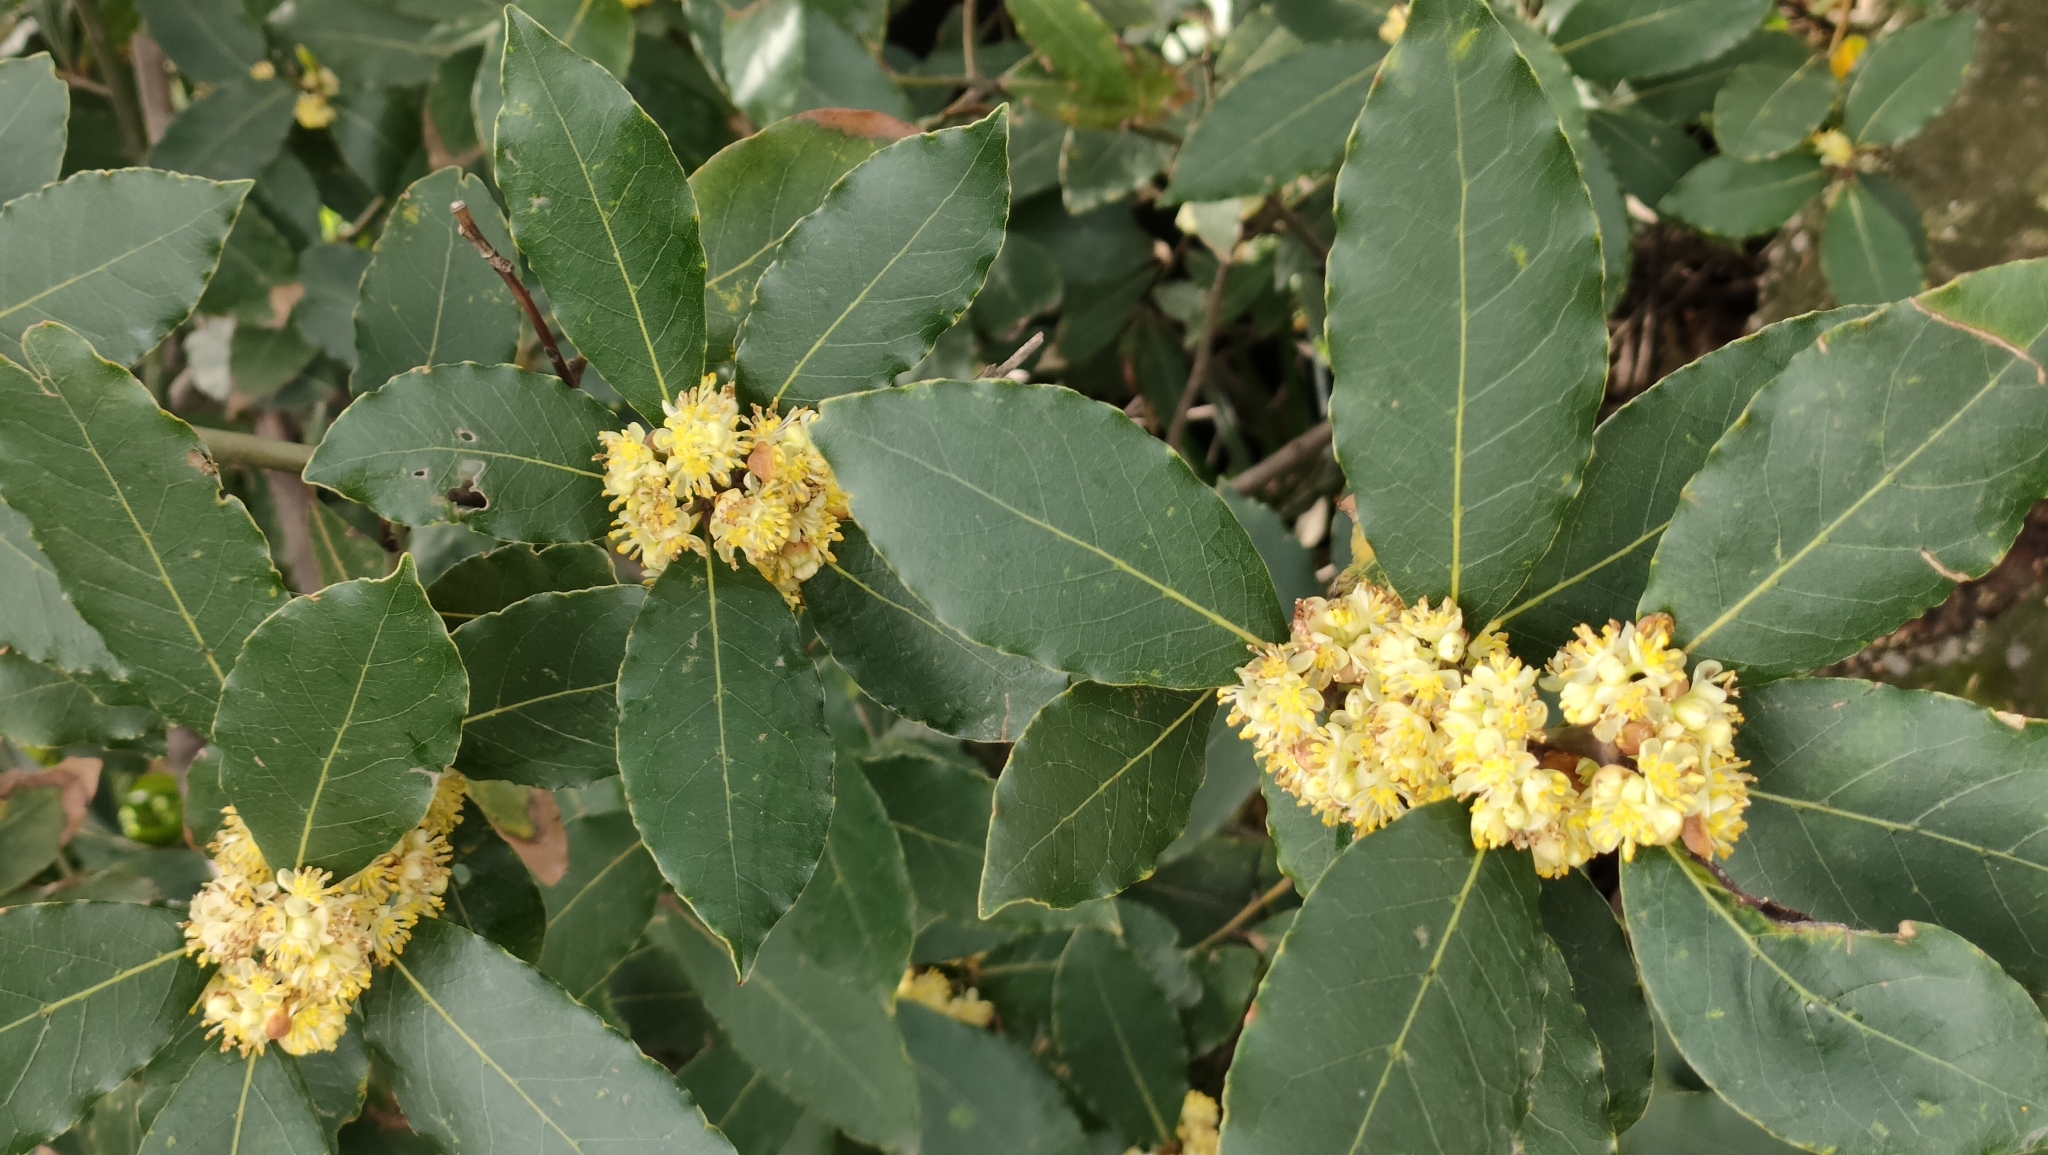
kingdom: Plantae
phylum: Tracheophyta
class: Magnoliopsida
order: Laurales
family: Lauraceae
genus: Laurus
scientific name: Laurus nobilis
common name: Bay
